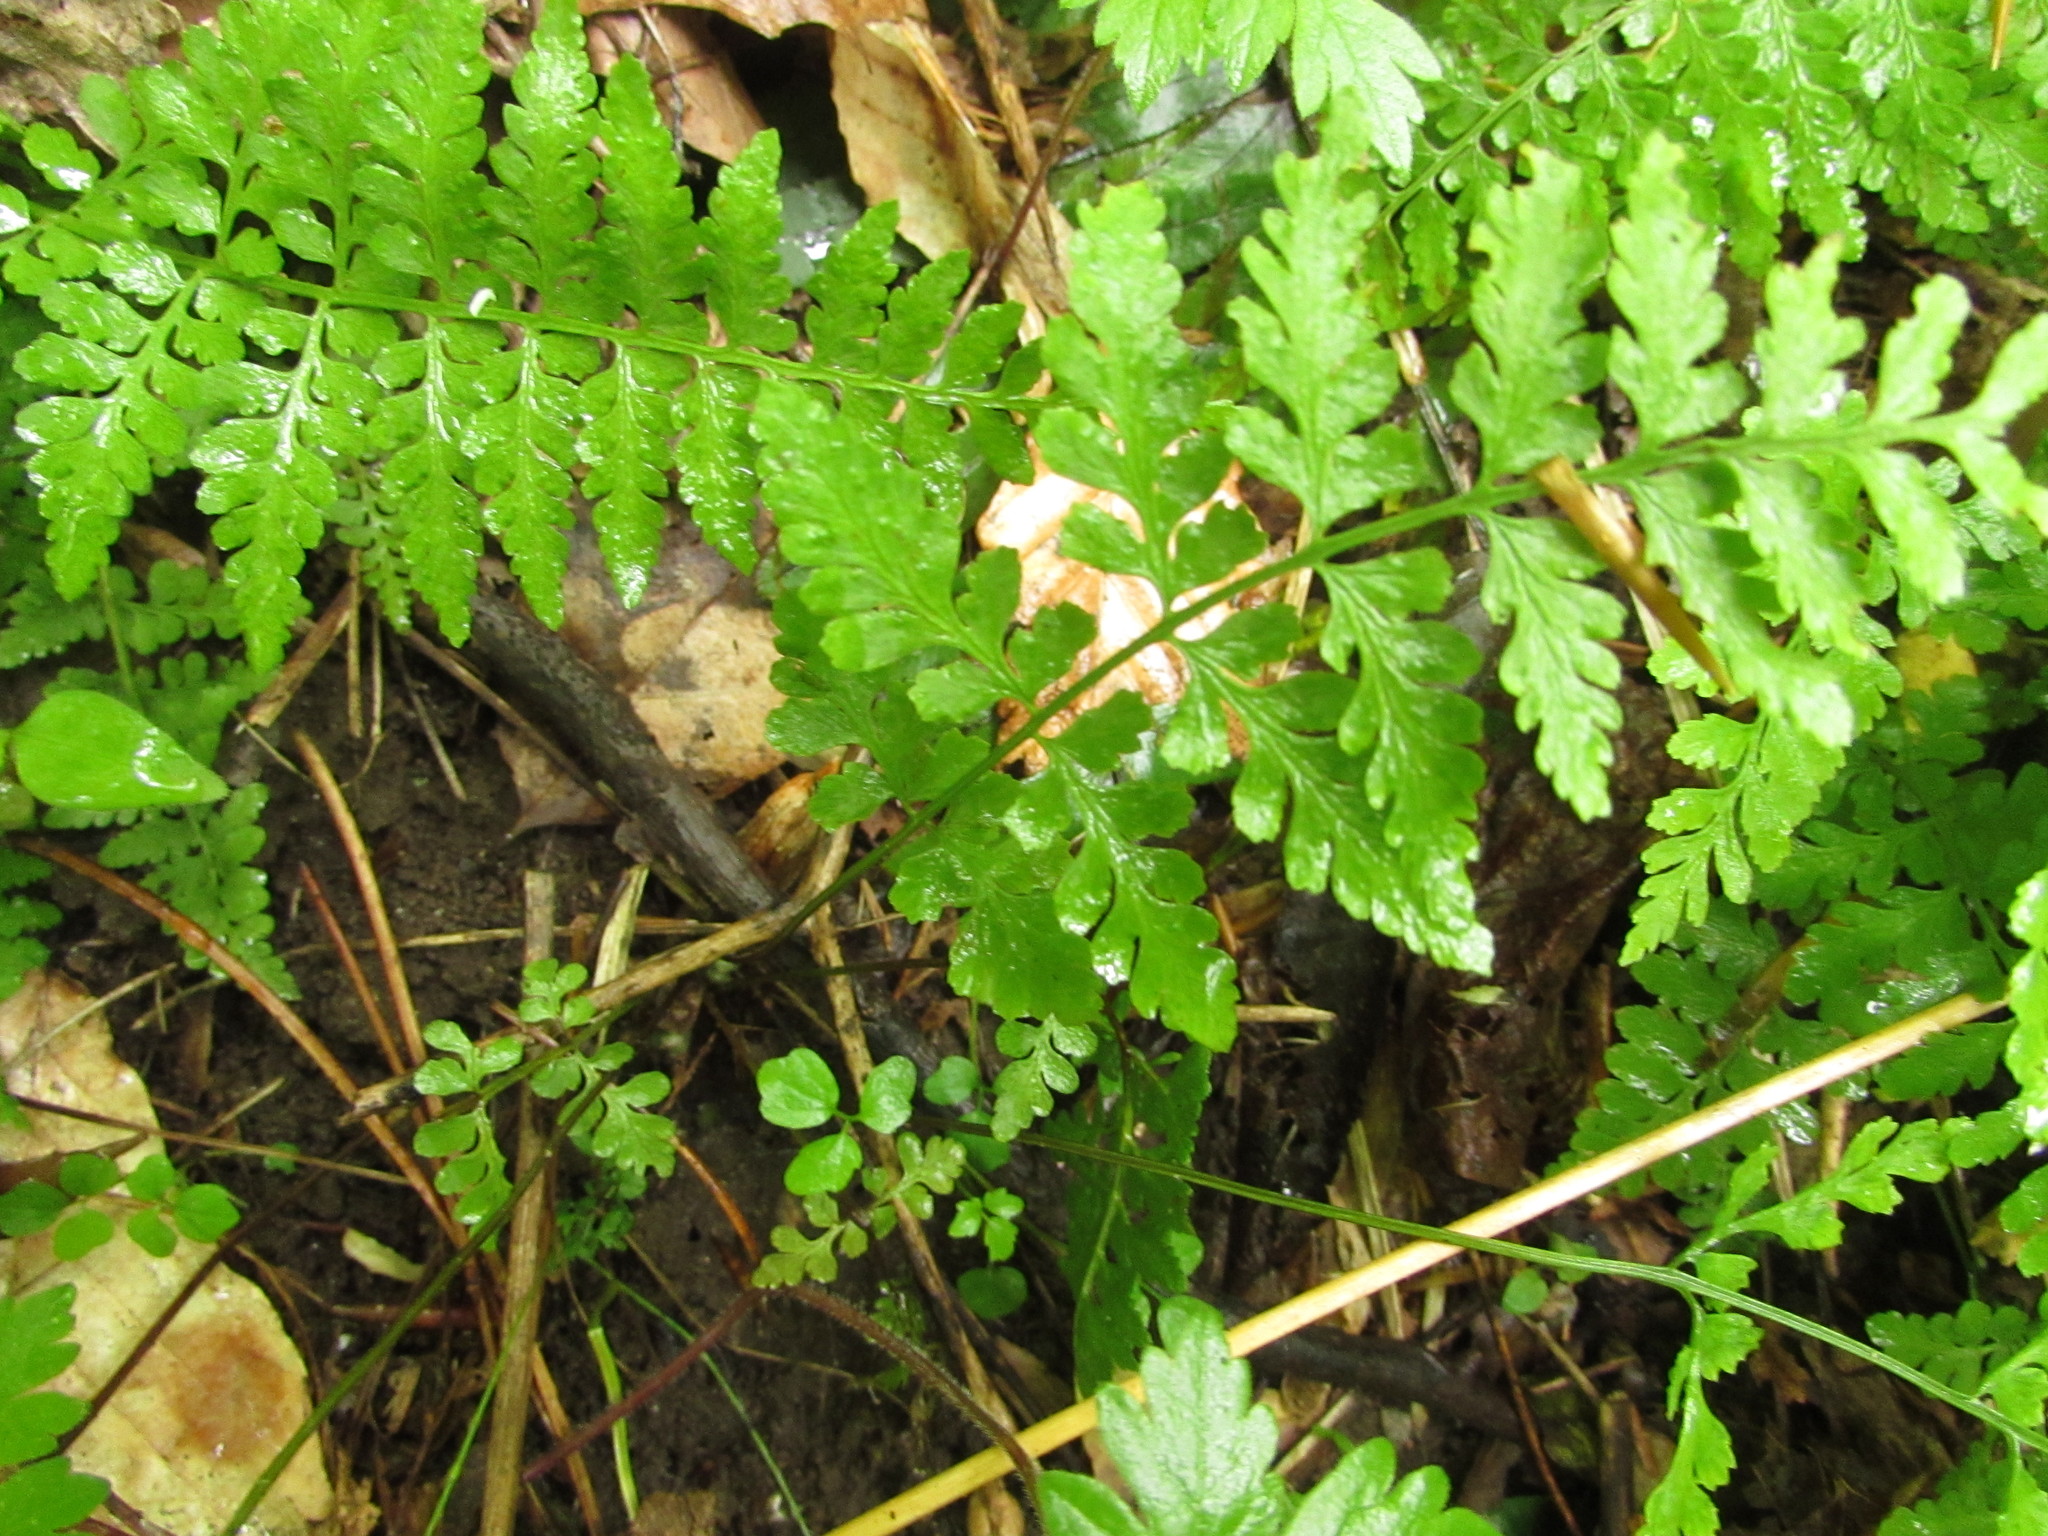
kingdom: Plantae
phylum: Tracheophyta
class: Polypodiopsida
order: Polypodiales
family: Cystopteridaceae
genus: Cystopteris
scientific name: Cystopteris protrusa
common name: Lowland brittle fern
